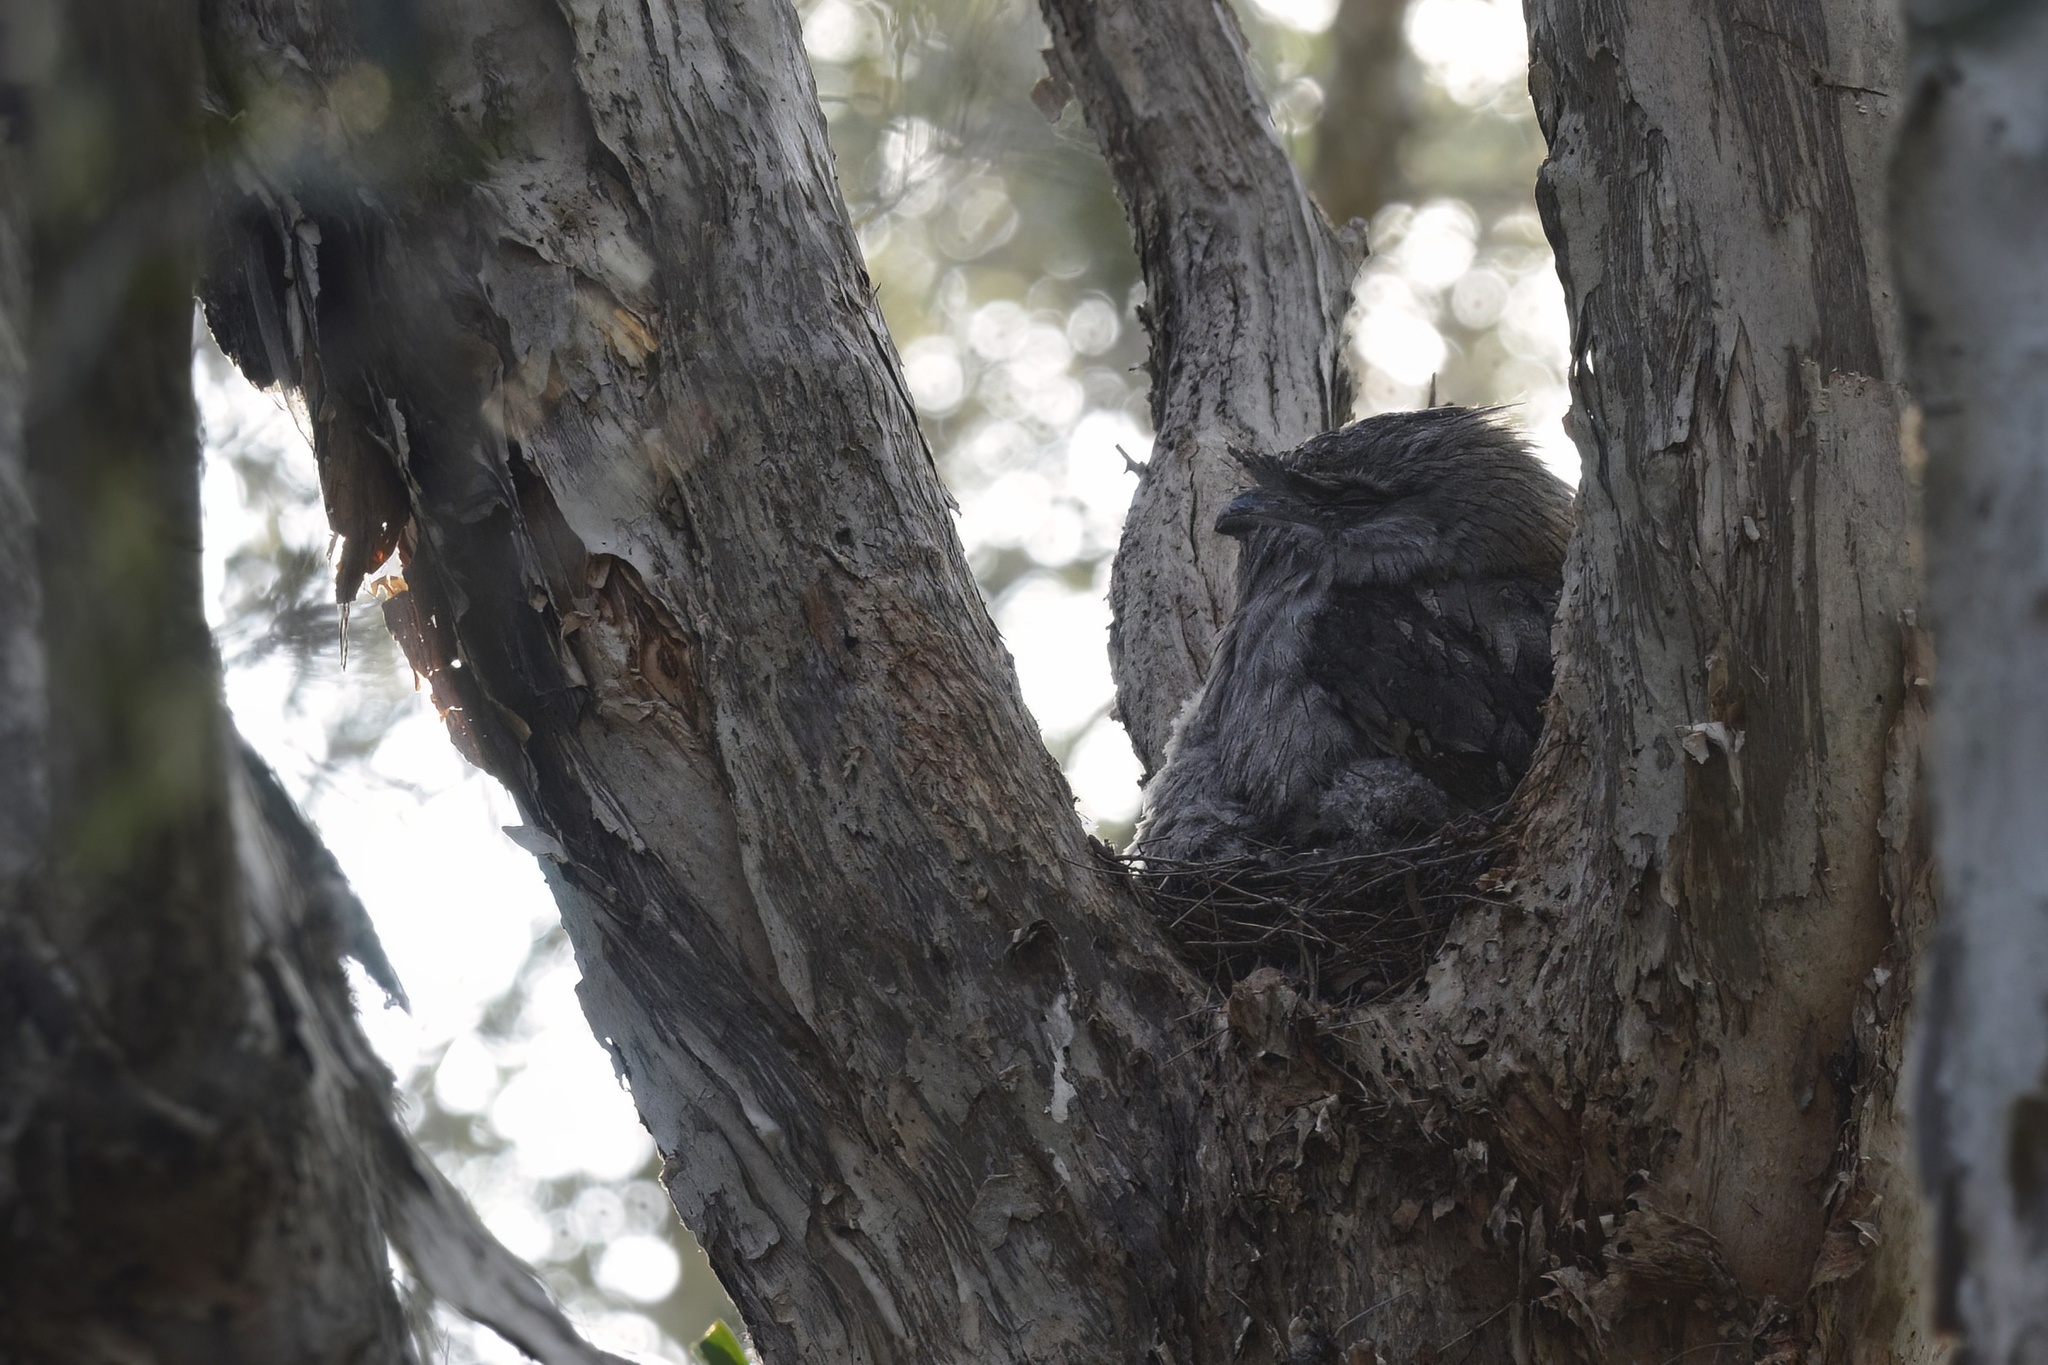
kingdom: Animalia
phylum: Chordata
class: Aves
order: Caprimulgiformes
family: Podargidae
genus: Podargus
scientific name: Podargus strigoides
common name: Tawny frogmouth
